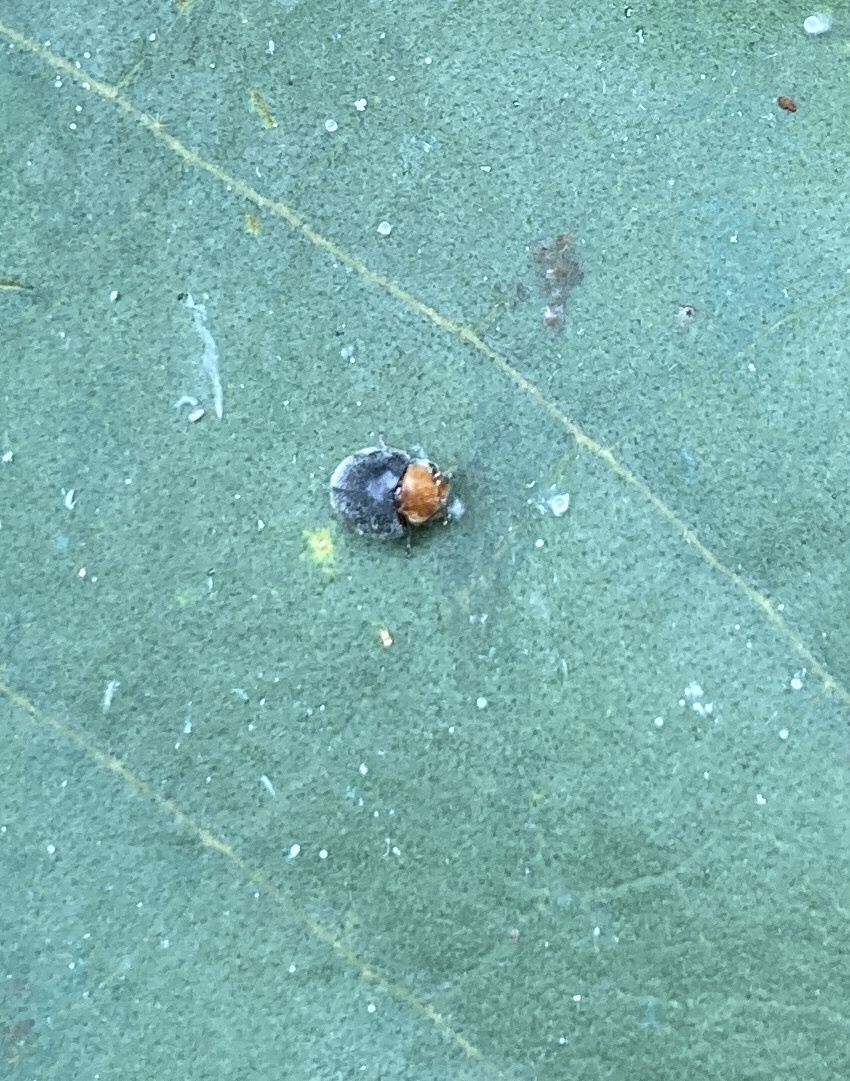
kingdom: Animalia
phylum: Arthropoda
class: Insecta
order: Coleoptera
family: Coccinellidae
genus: Cryptolaemus
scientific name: Cryptolaemus montrouzieri
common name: Mealybug destroyer
